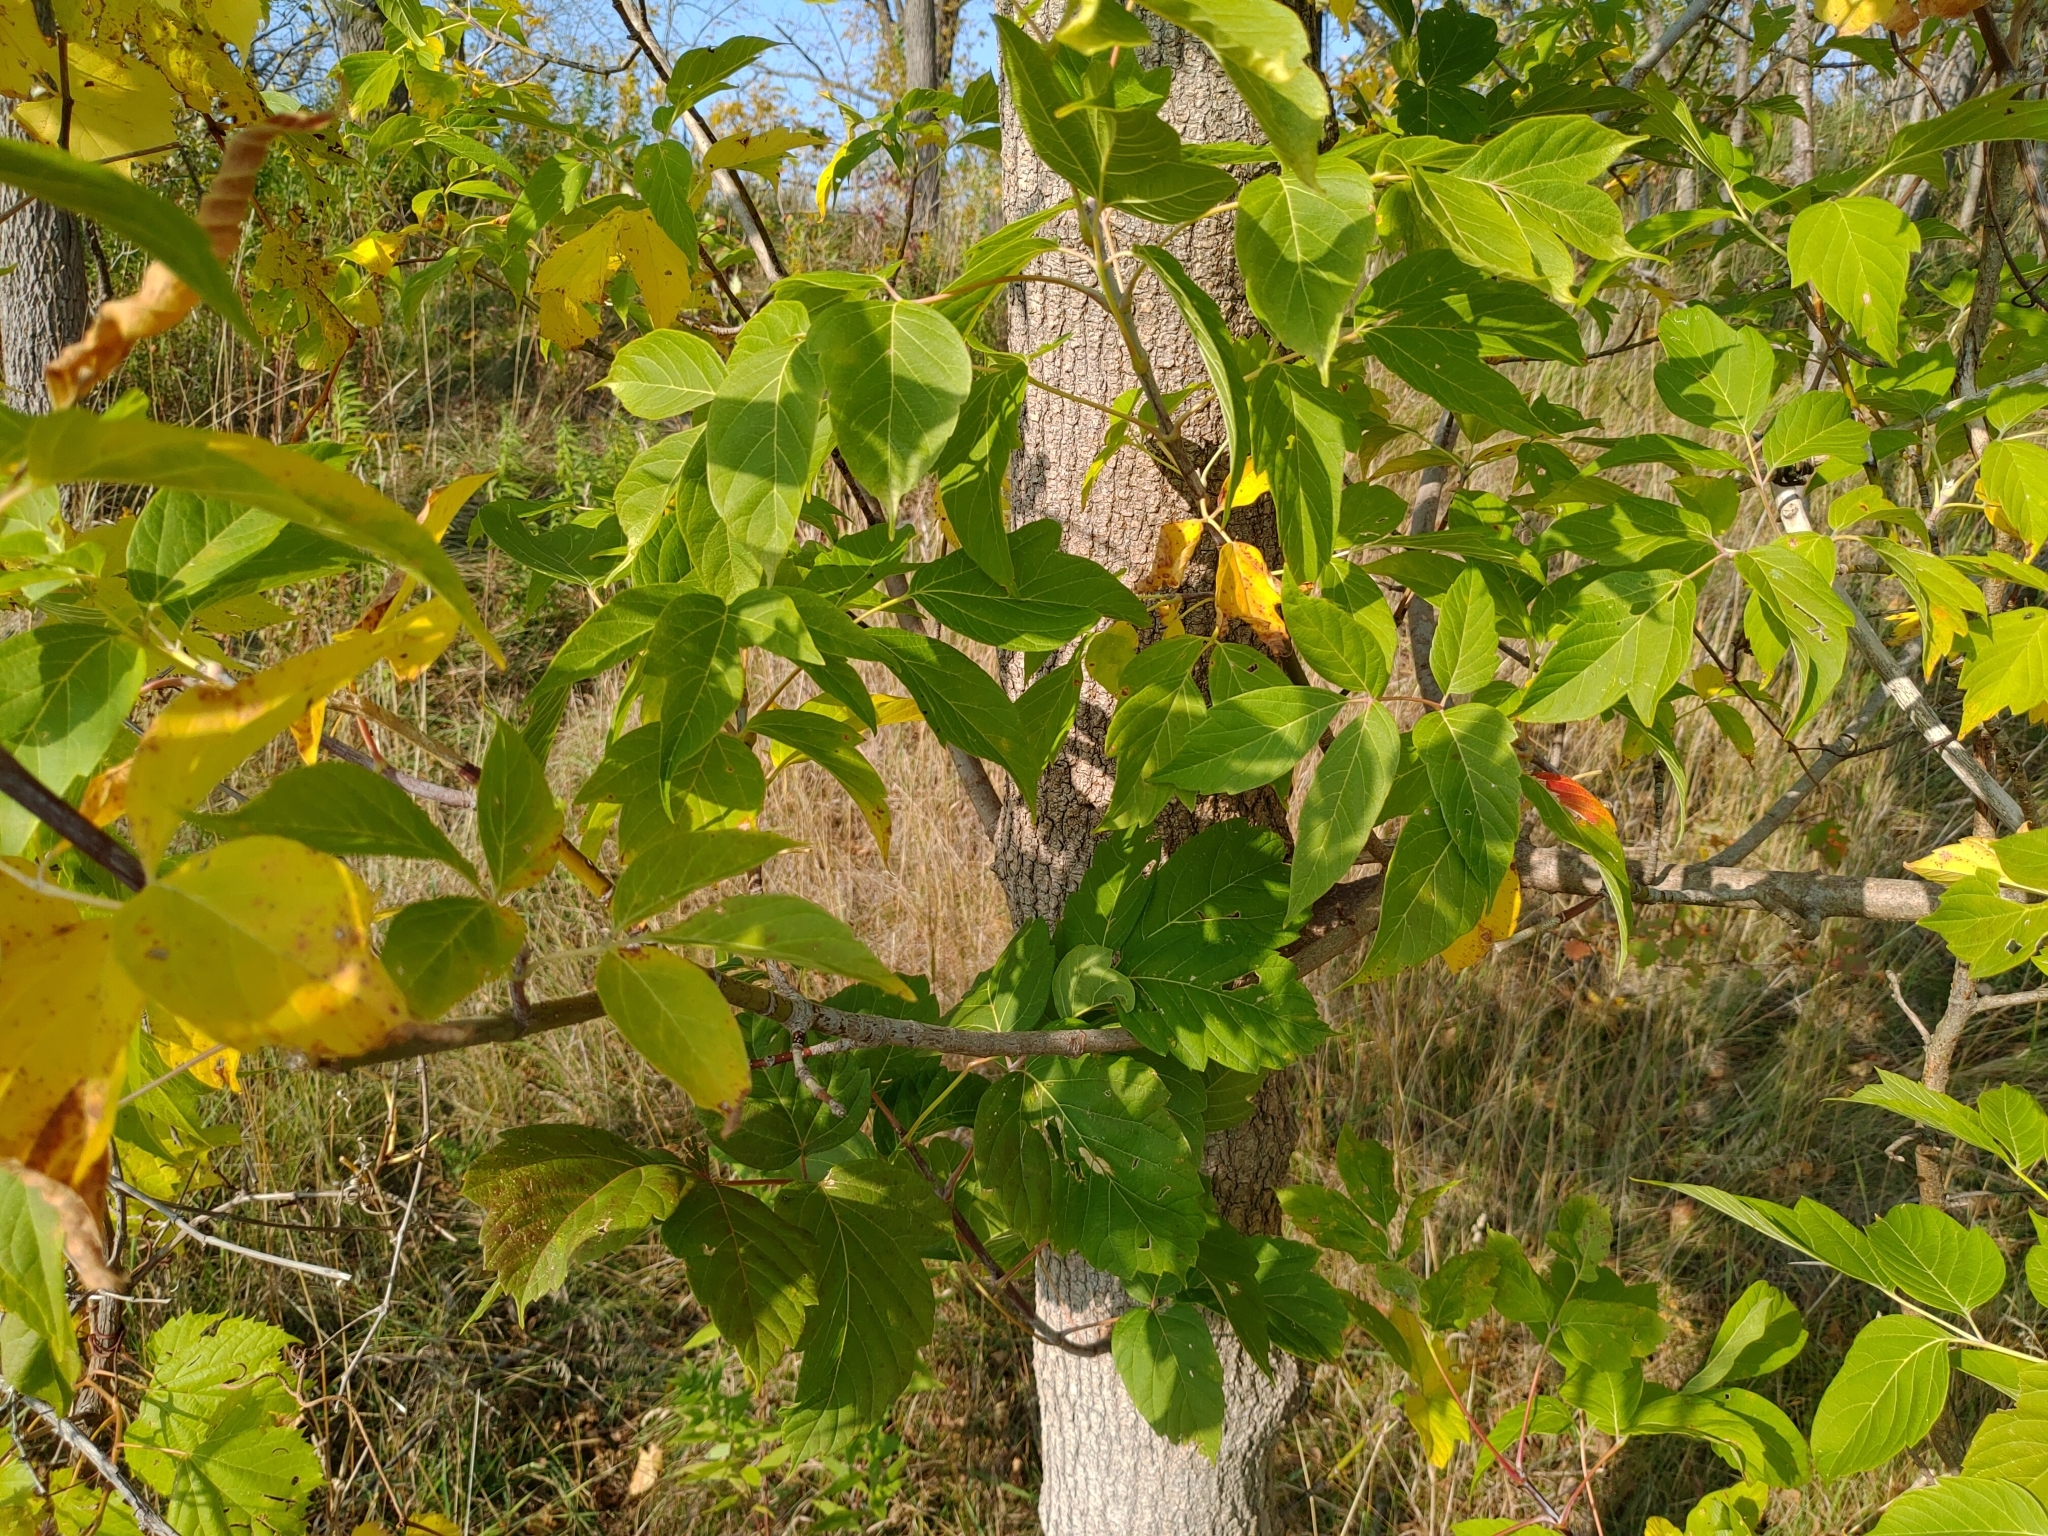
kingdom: Plantae
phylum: Tracheophyta
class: Magnoliopsida
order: Sapindales
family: Sapindaceae
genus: Acer
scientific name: Acer negundo
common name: Ashleaf maple
